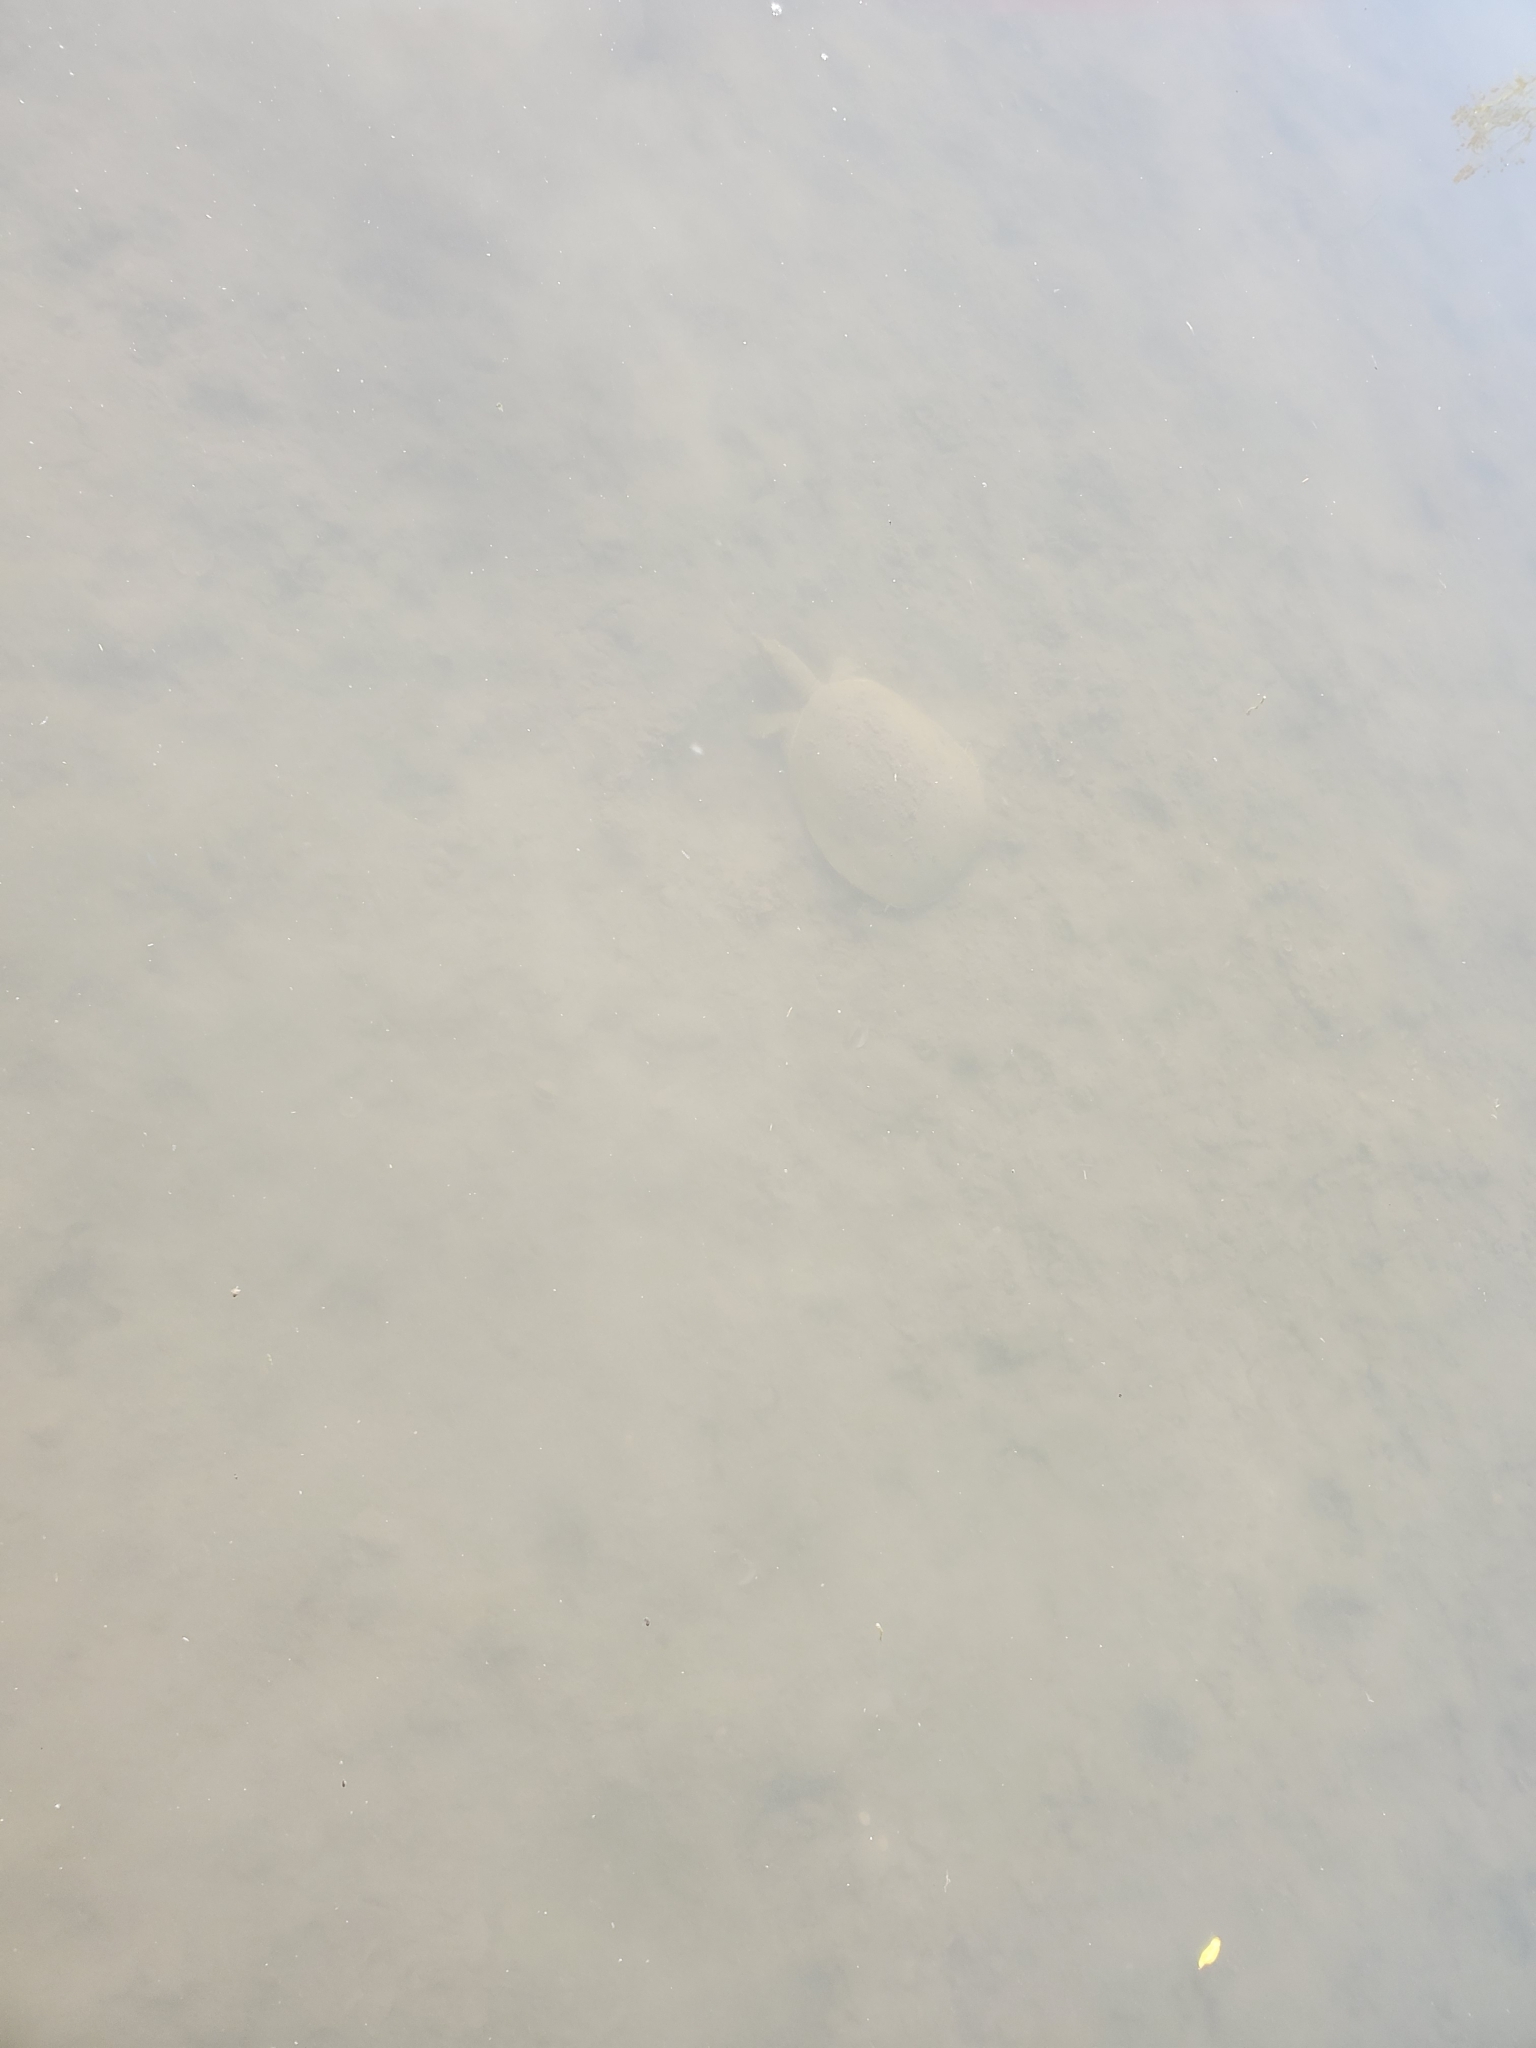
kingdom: Animalia
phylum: Chordata
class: Testudines
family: Trionychidae
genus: Apalone
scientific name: Apalone spinifera
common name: Spiny softshell turtle
